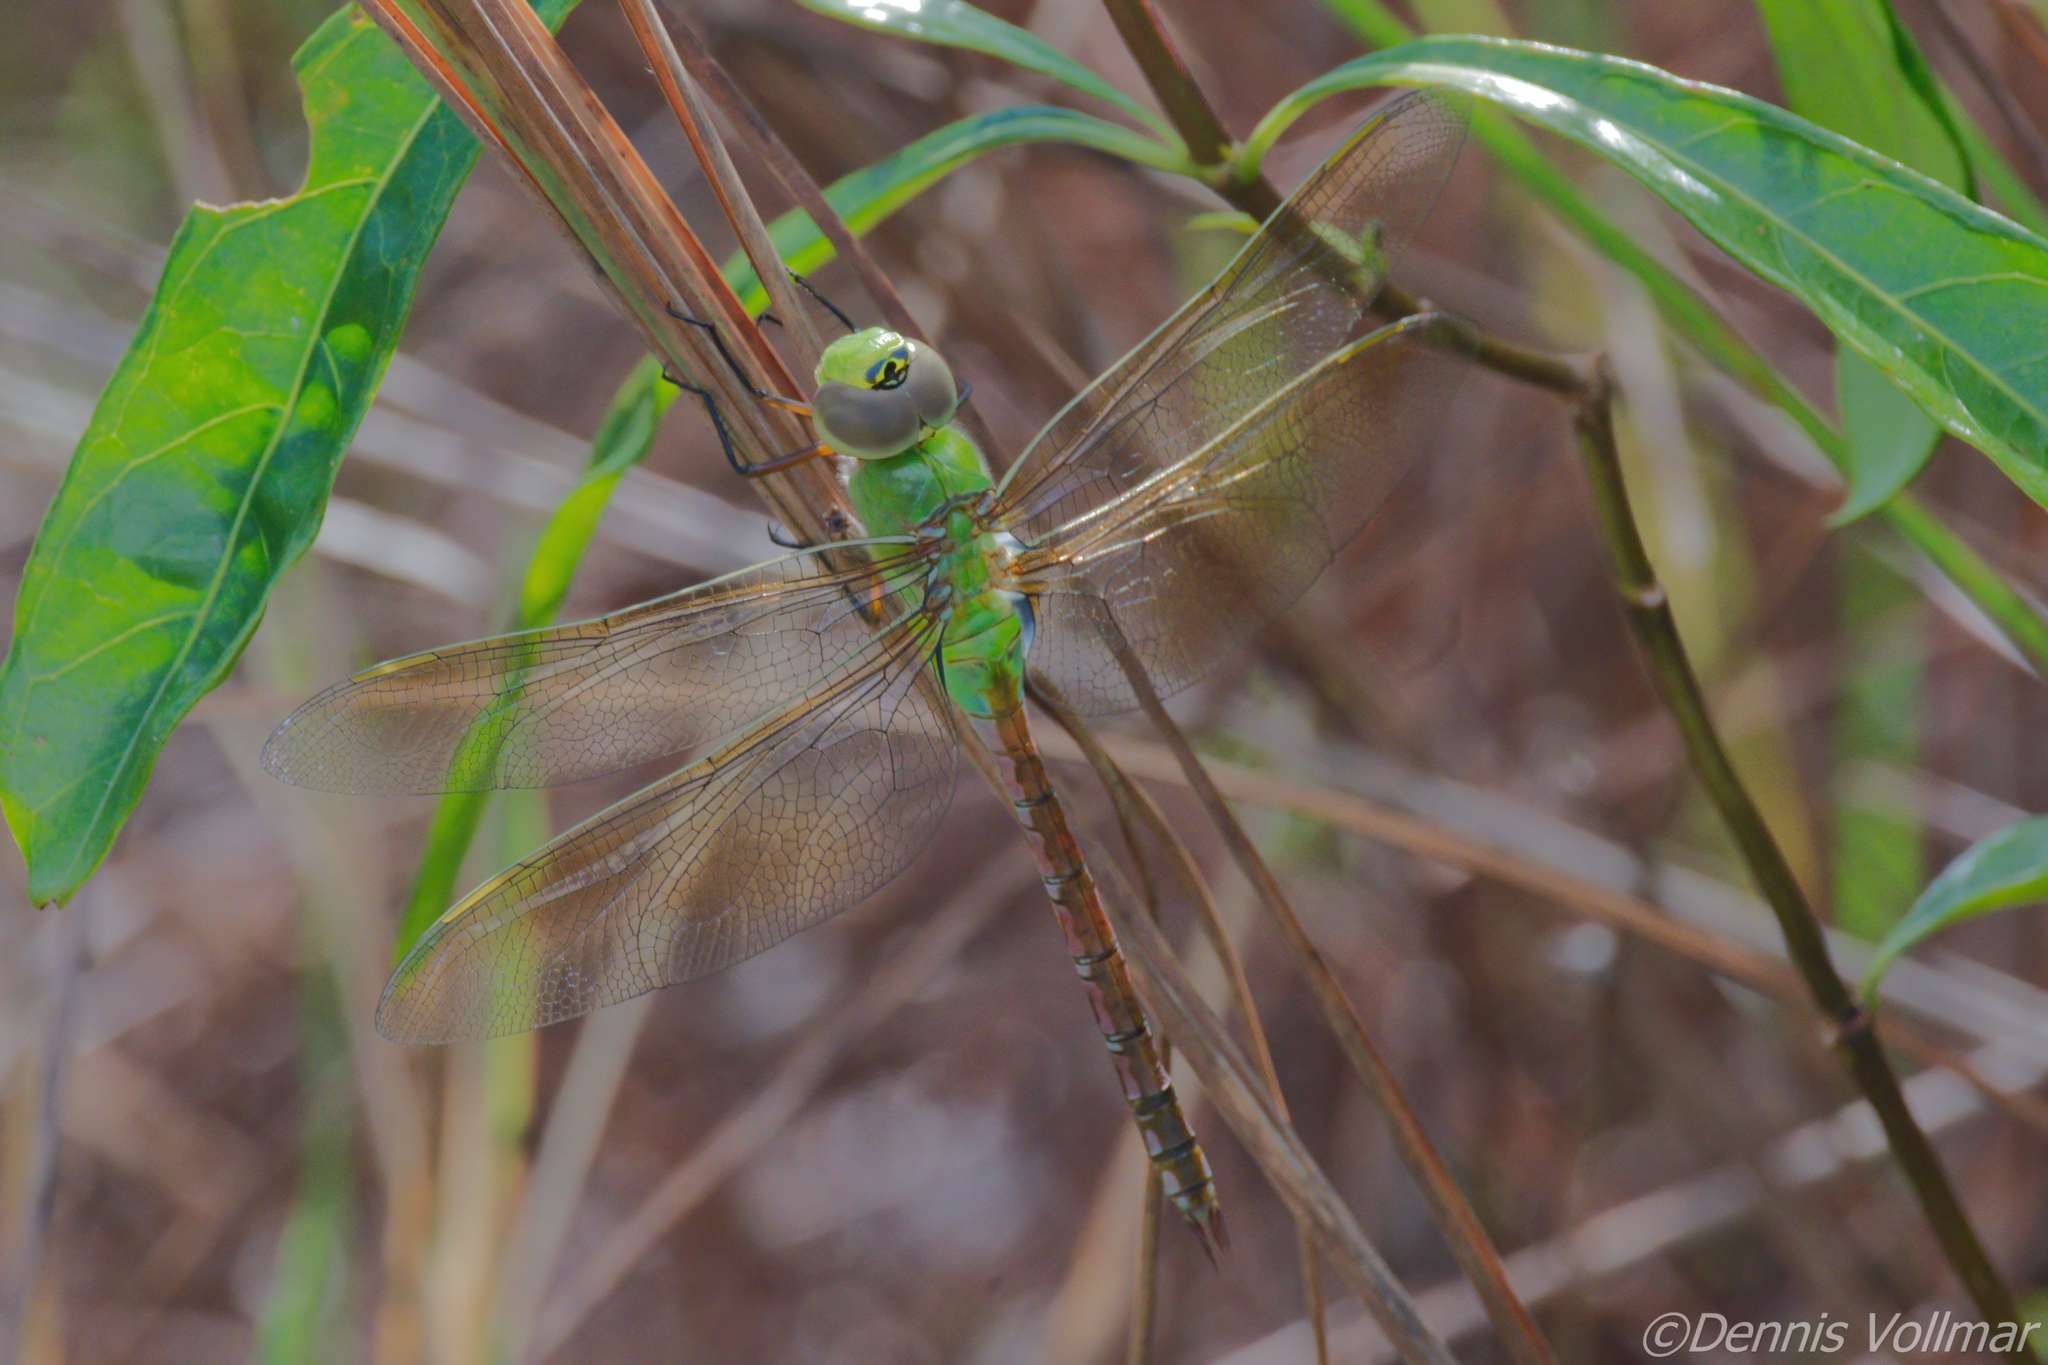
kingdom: Animalia
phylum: Arthropoda
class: Insecta
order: Odonata
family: Aeshnidae
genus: Anax
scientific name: Anax junius
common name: Common green darner
